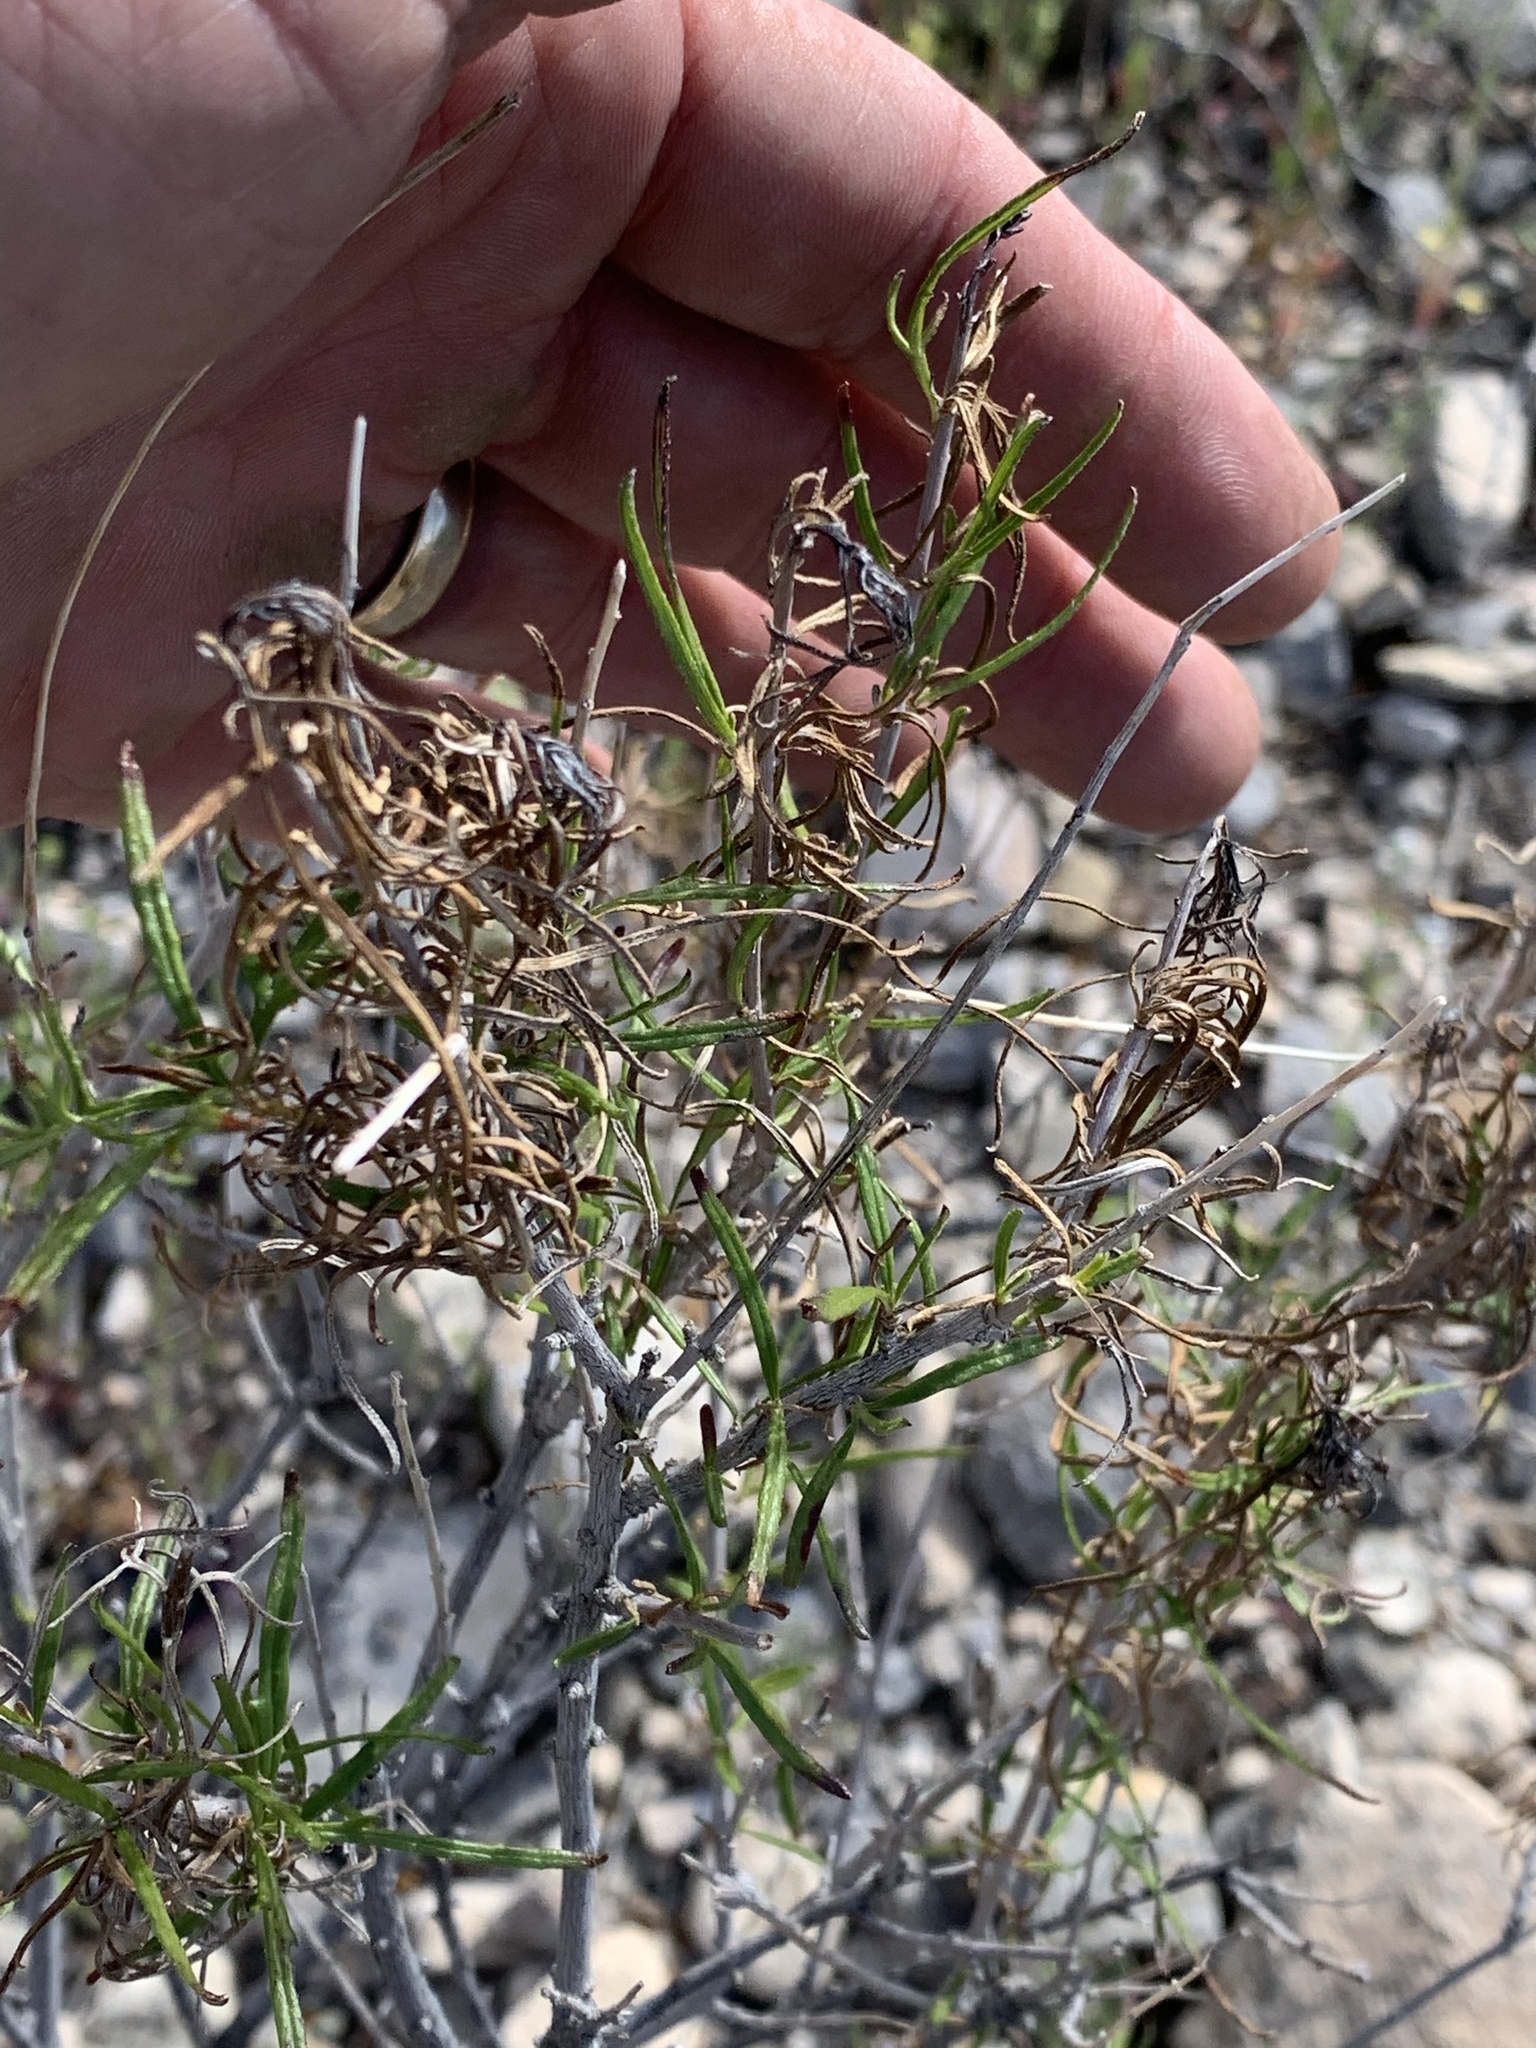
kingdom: Plantae
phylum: Tracheophyta
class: Magnoliopsida
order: Asterales
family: Asteraceae
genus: Sidneya
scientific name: Sidneya tenuifolia
